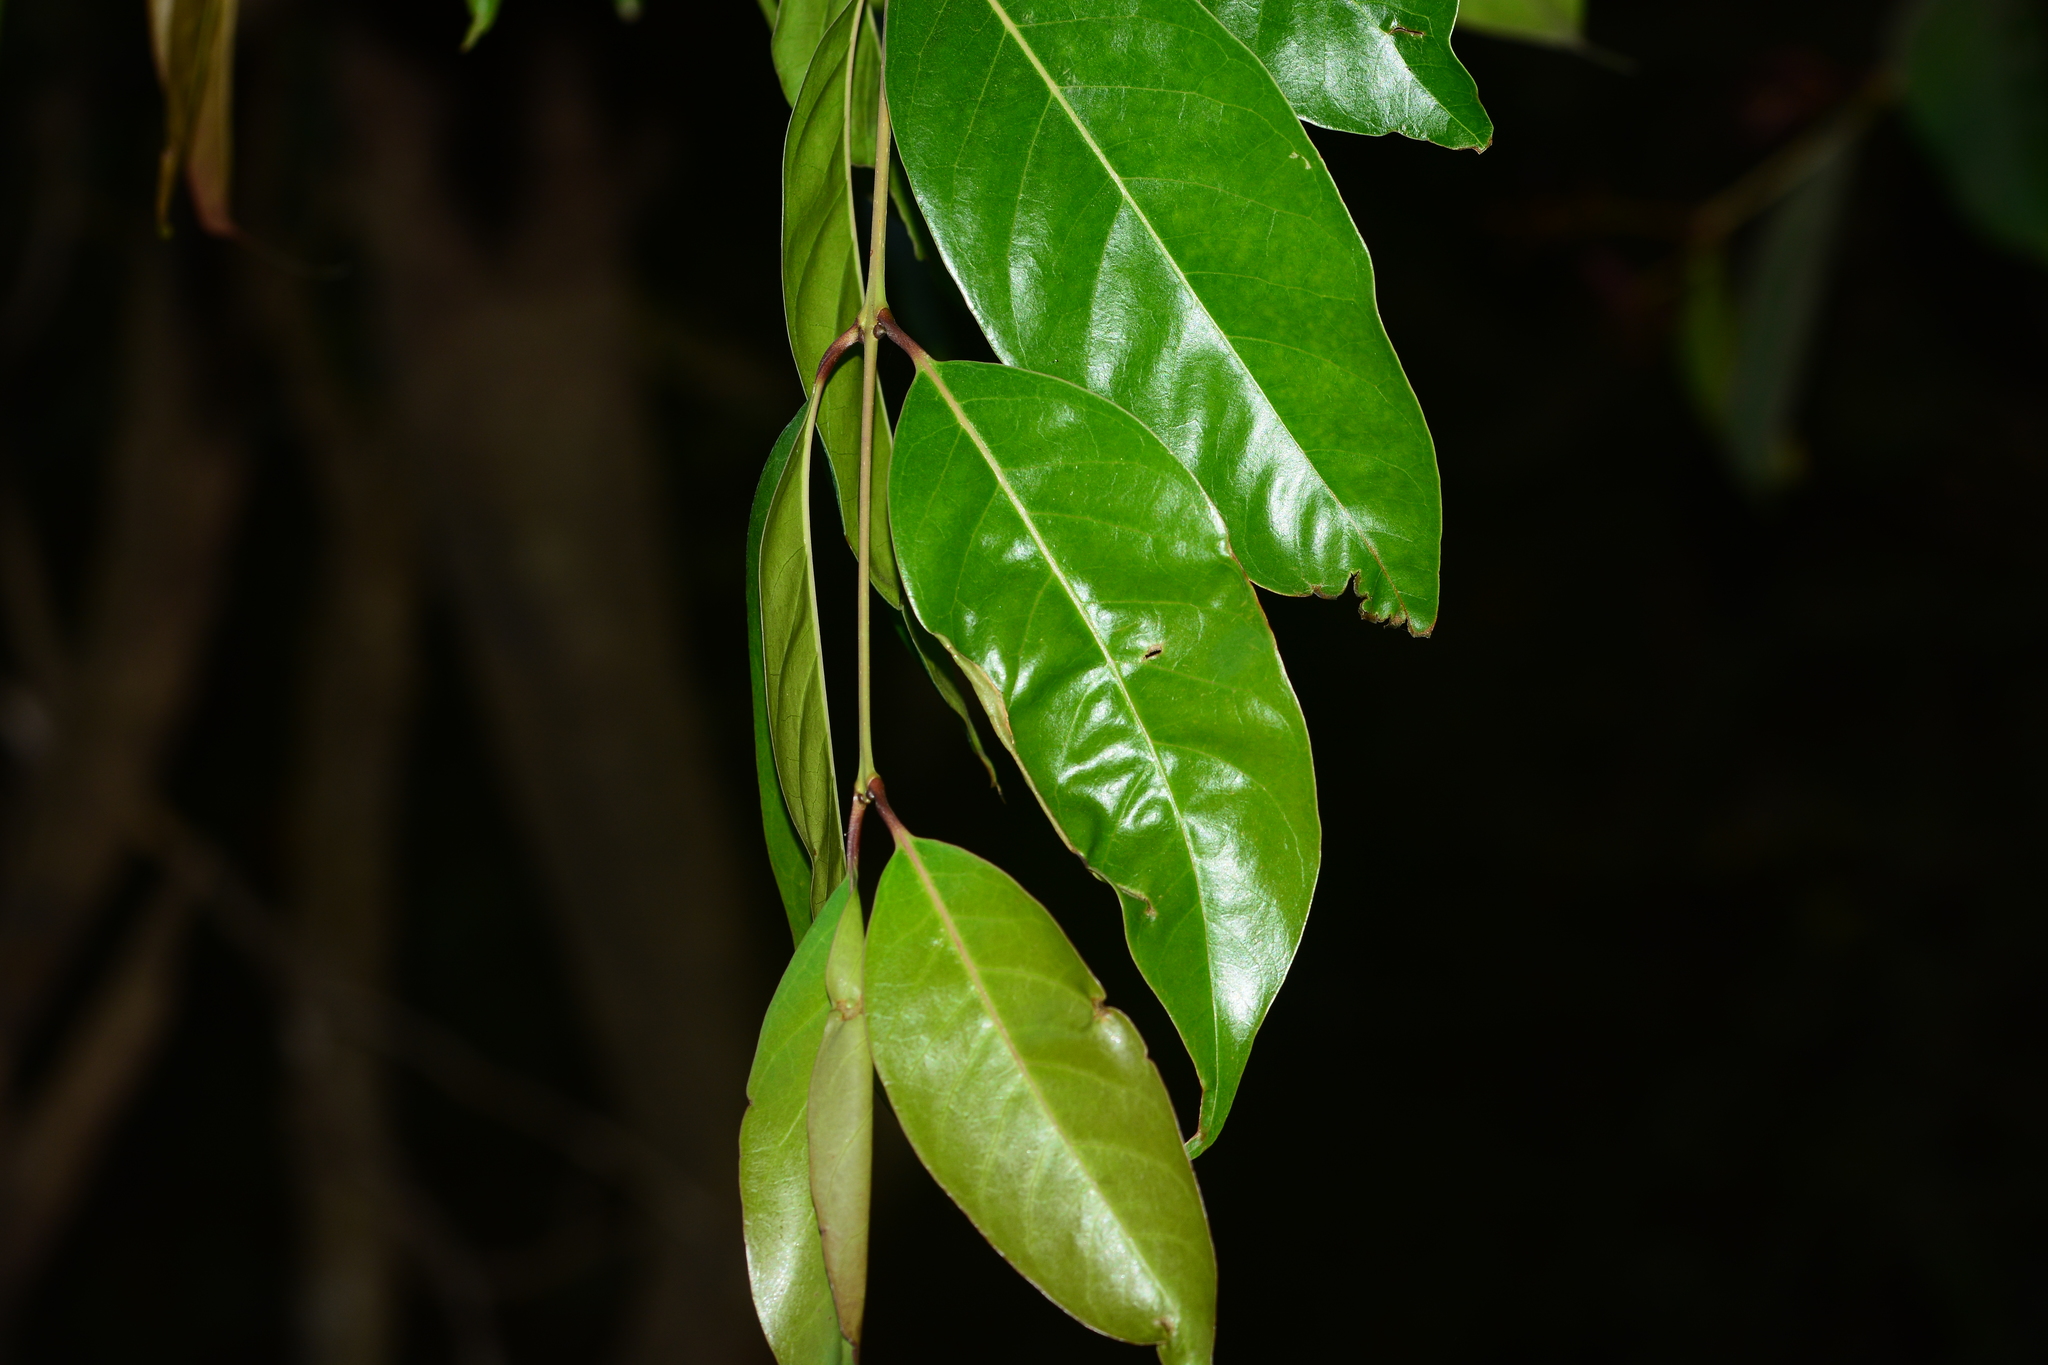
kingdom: Plantae
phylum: Tracheophyta
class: Magnoliopsida
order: Lamiales
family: Oleaceae
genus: Tetrapilus
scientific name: Tetrapilus dioicus
